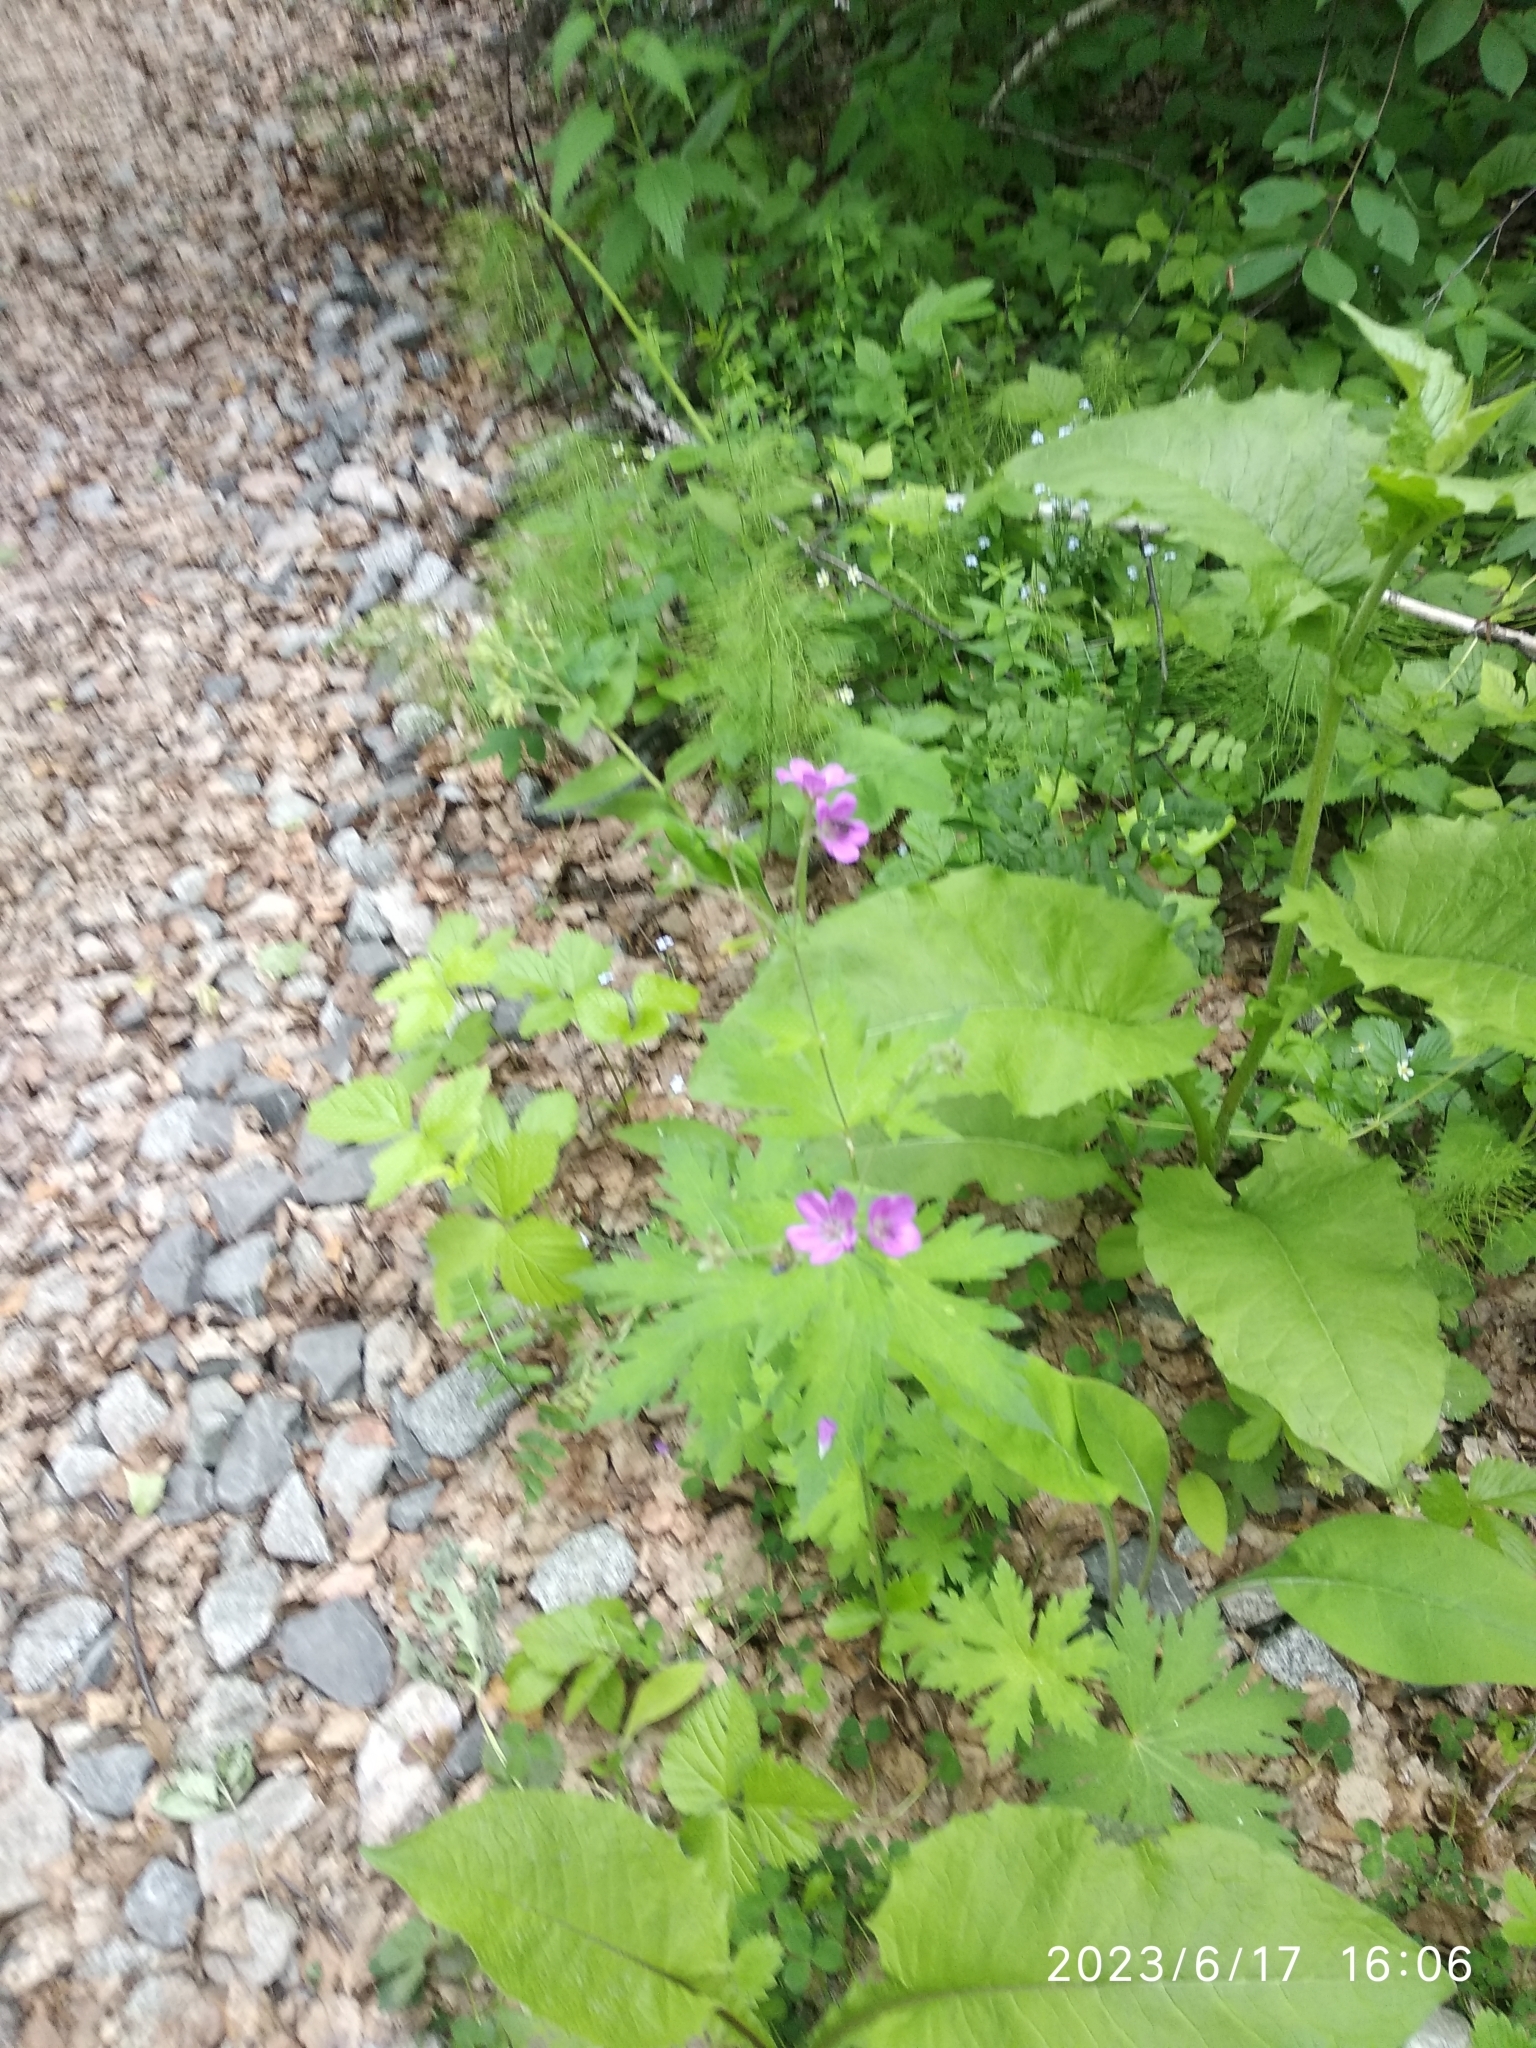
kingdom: Plantae
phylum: Tracheophyta
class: Magnoliopsida
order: Geraniales
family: Geraniaceae
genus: Geranium
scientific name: Geranium sylvaticum
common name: Wood crane's-bill
